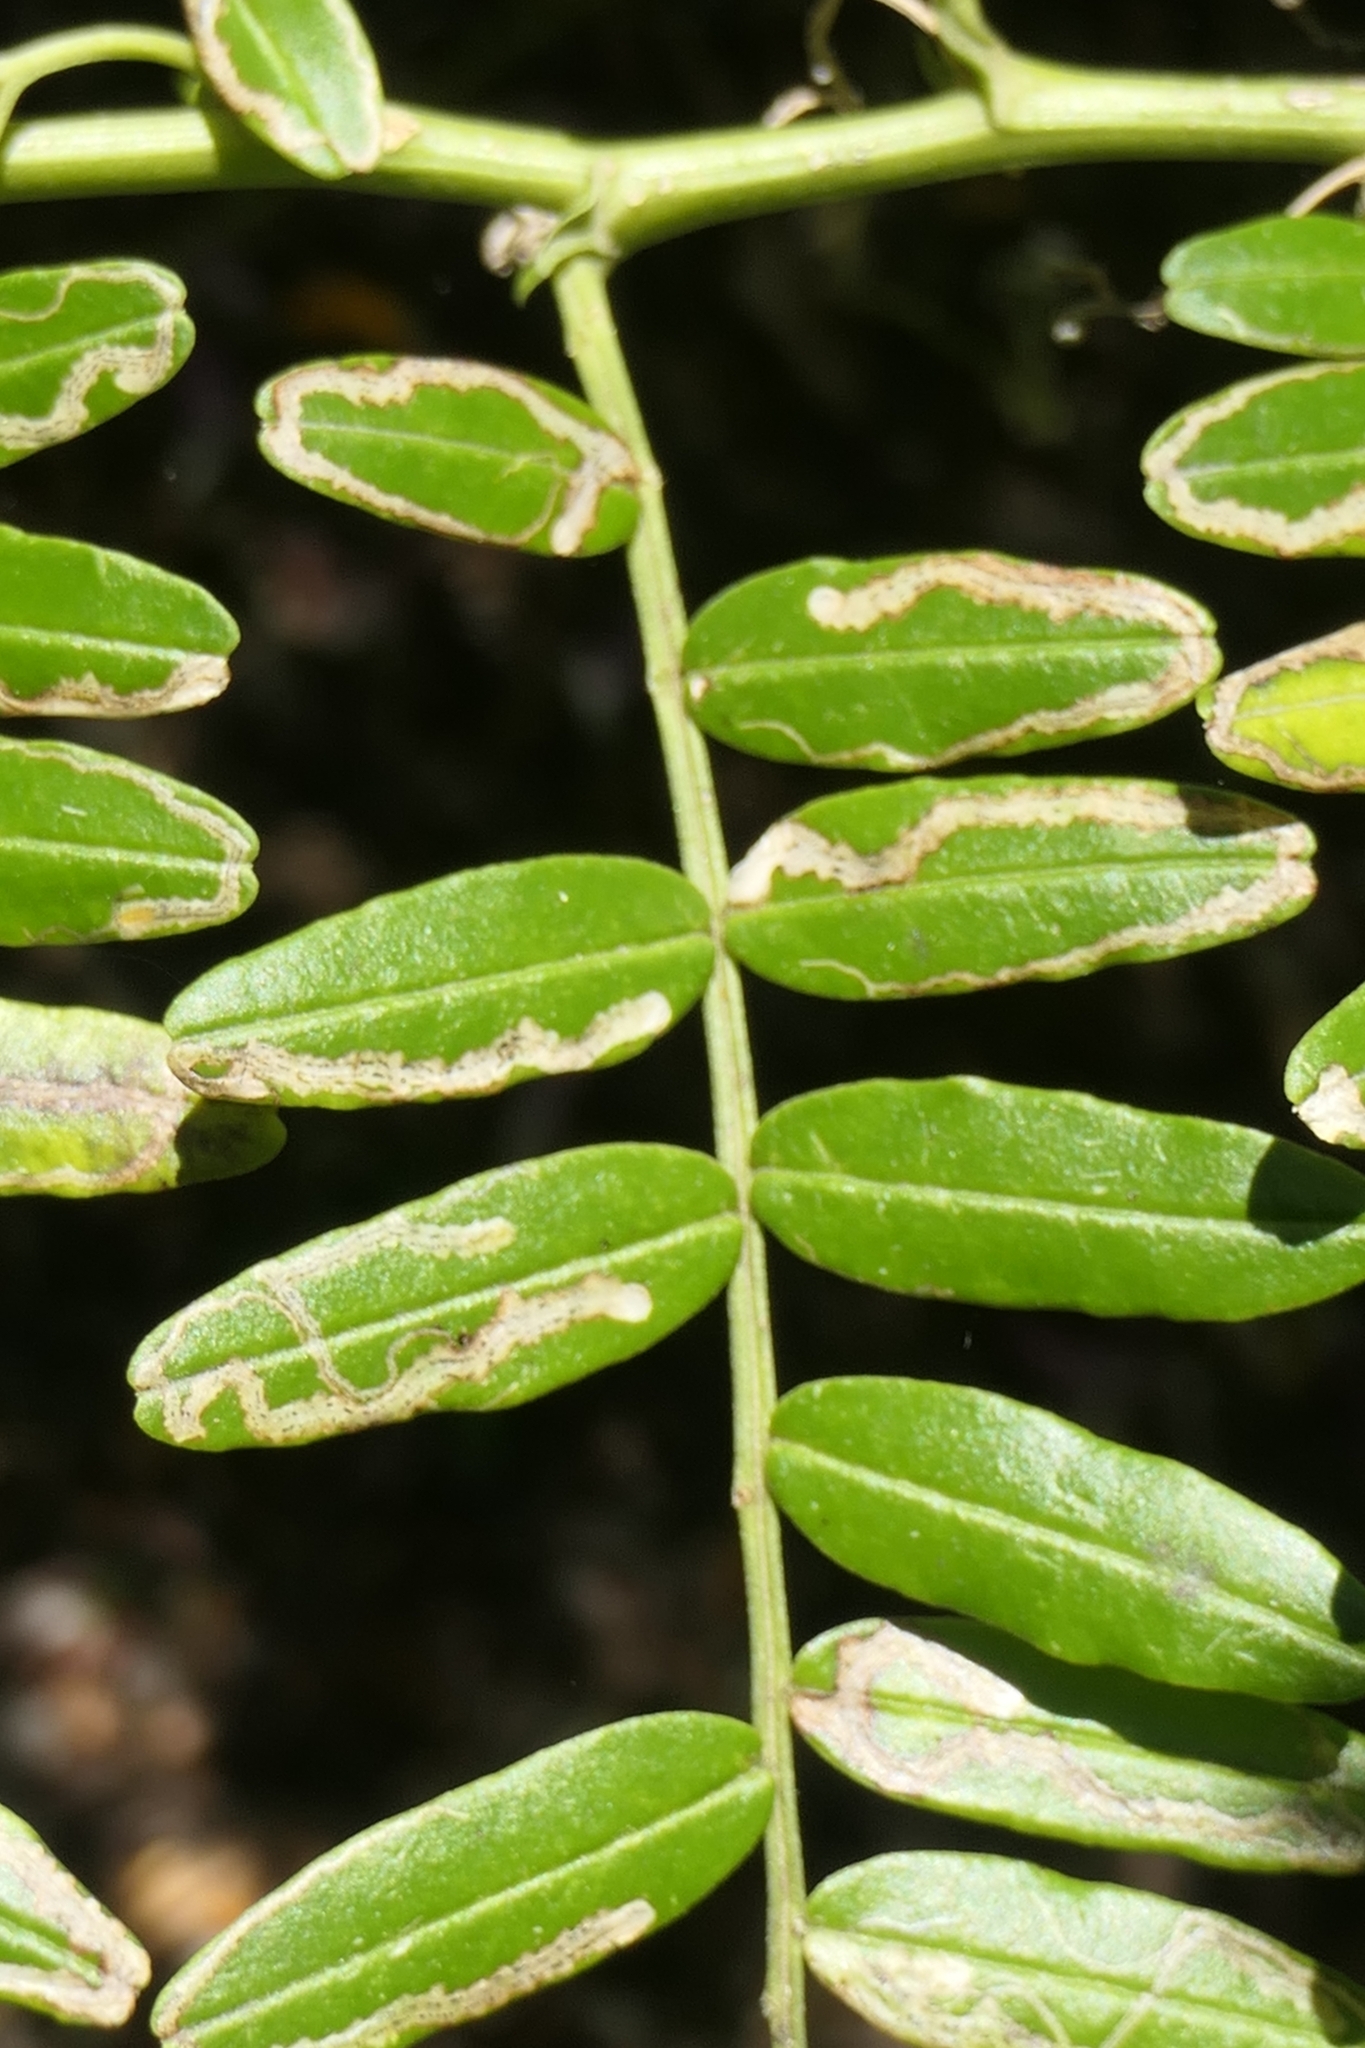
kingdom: Animalia
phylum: Arthropoda
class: Insecta
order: Diptera
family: Agromyzidae
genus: Liriomyza
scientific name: Liriomyza clianthi
